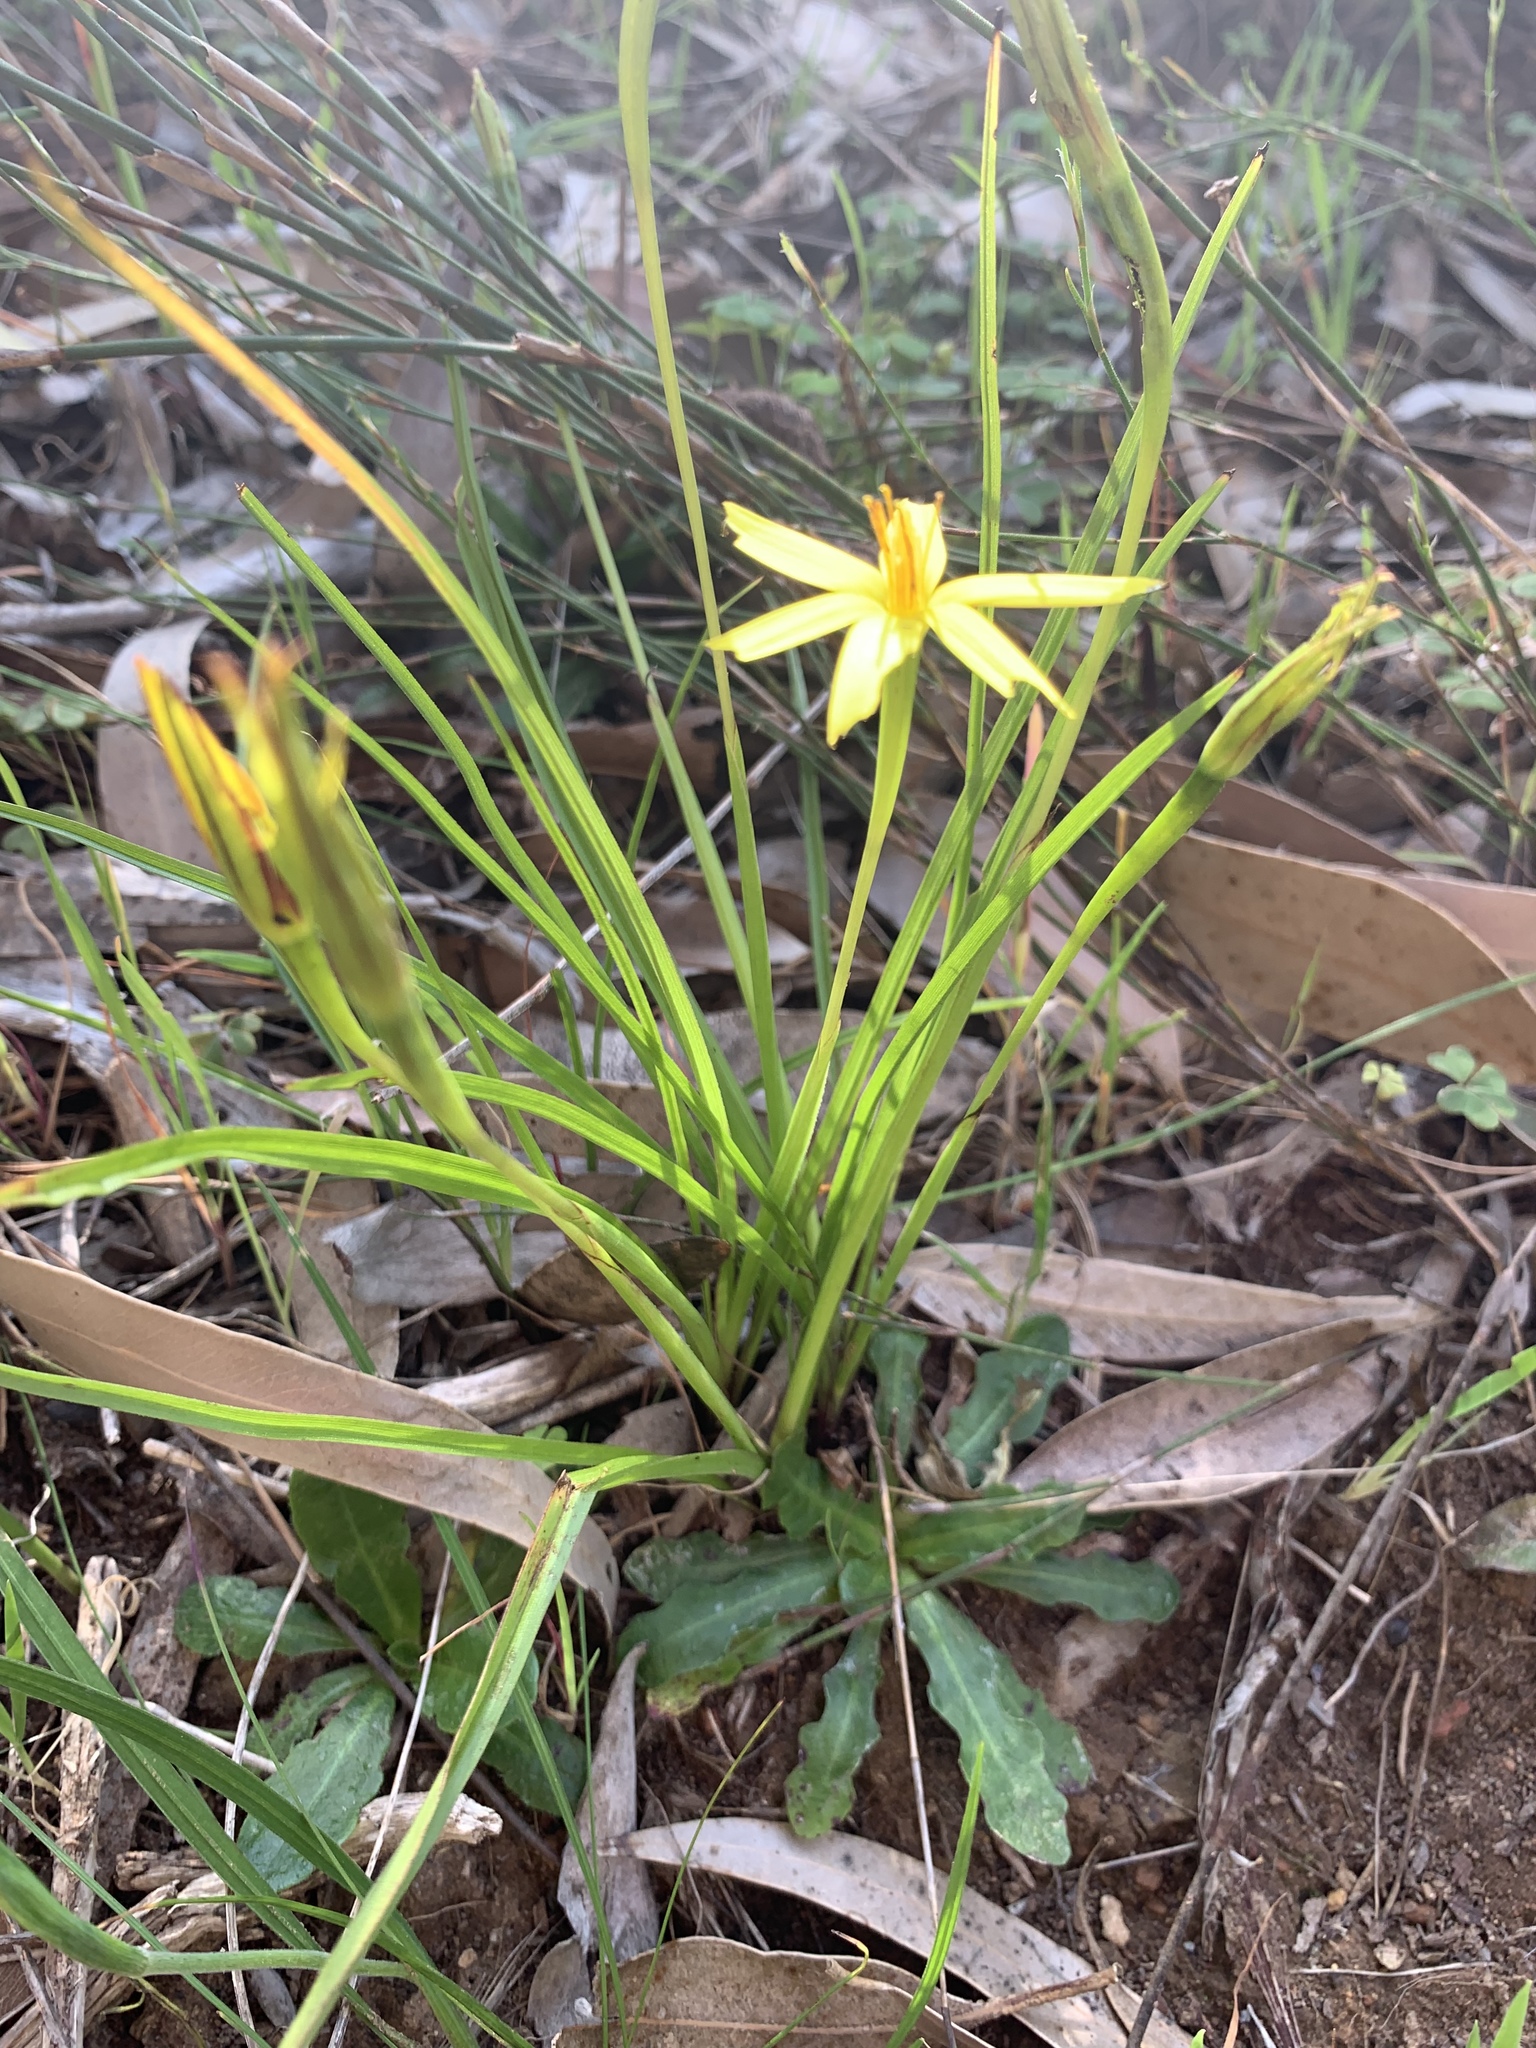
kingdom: Plantae
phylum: Tracheophyta
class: Liliopsida
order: Asparagales
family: Hypoxidaceae
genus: Pauridia
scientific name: Pauridia capensis
